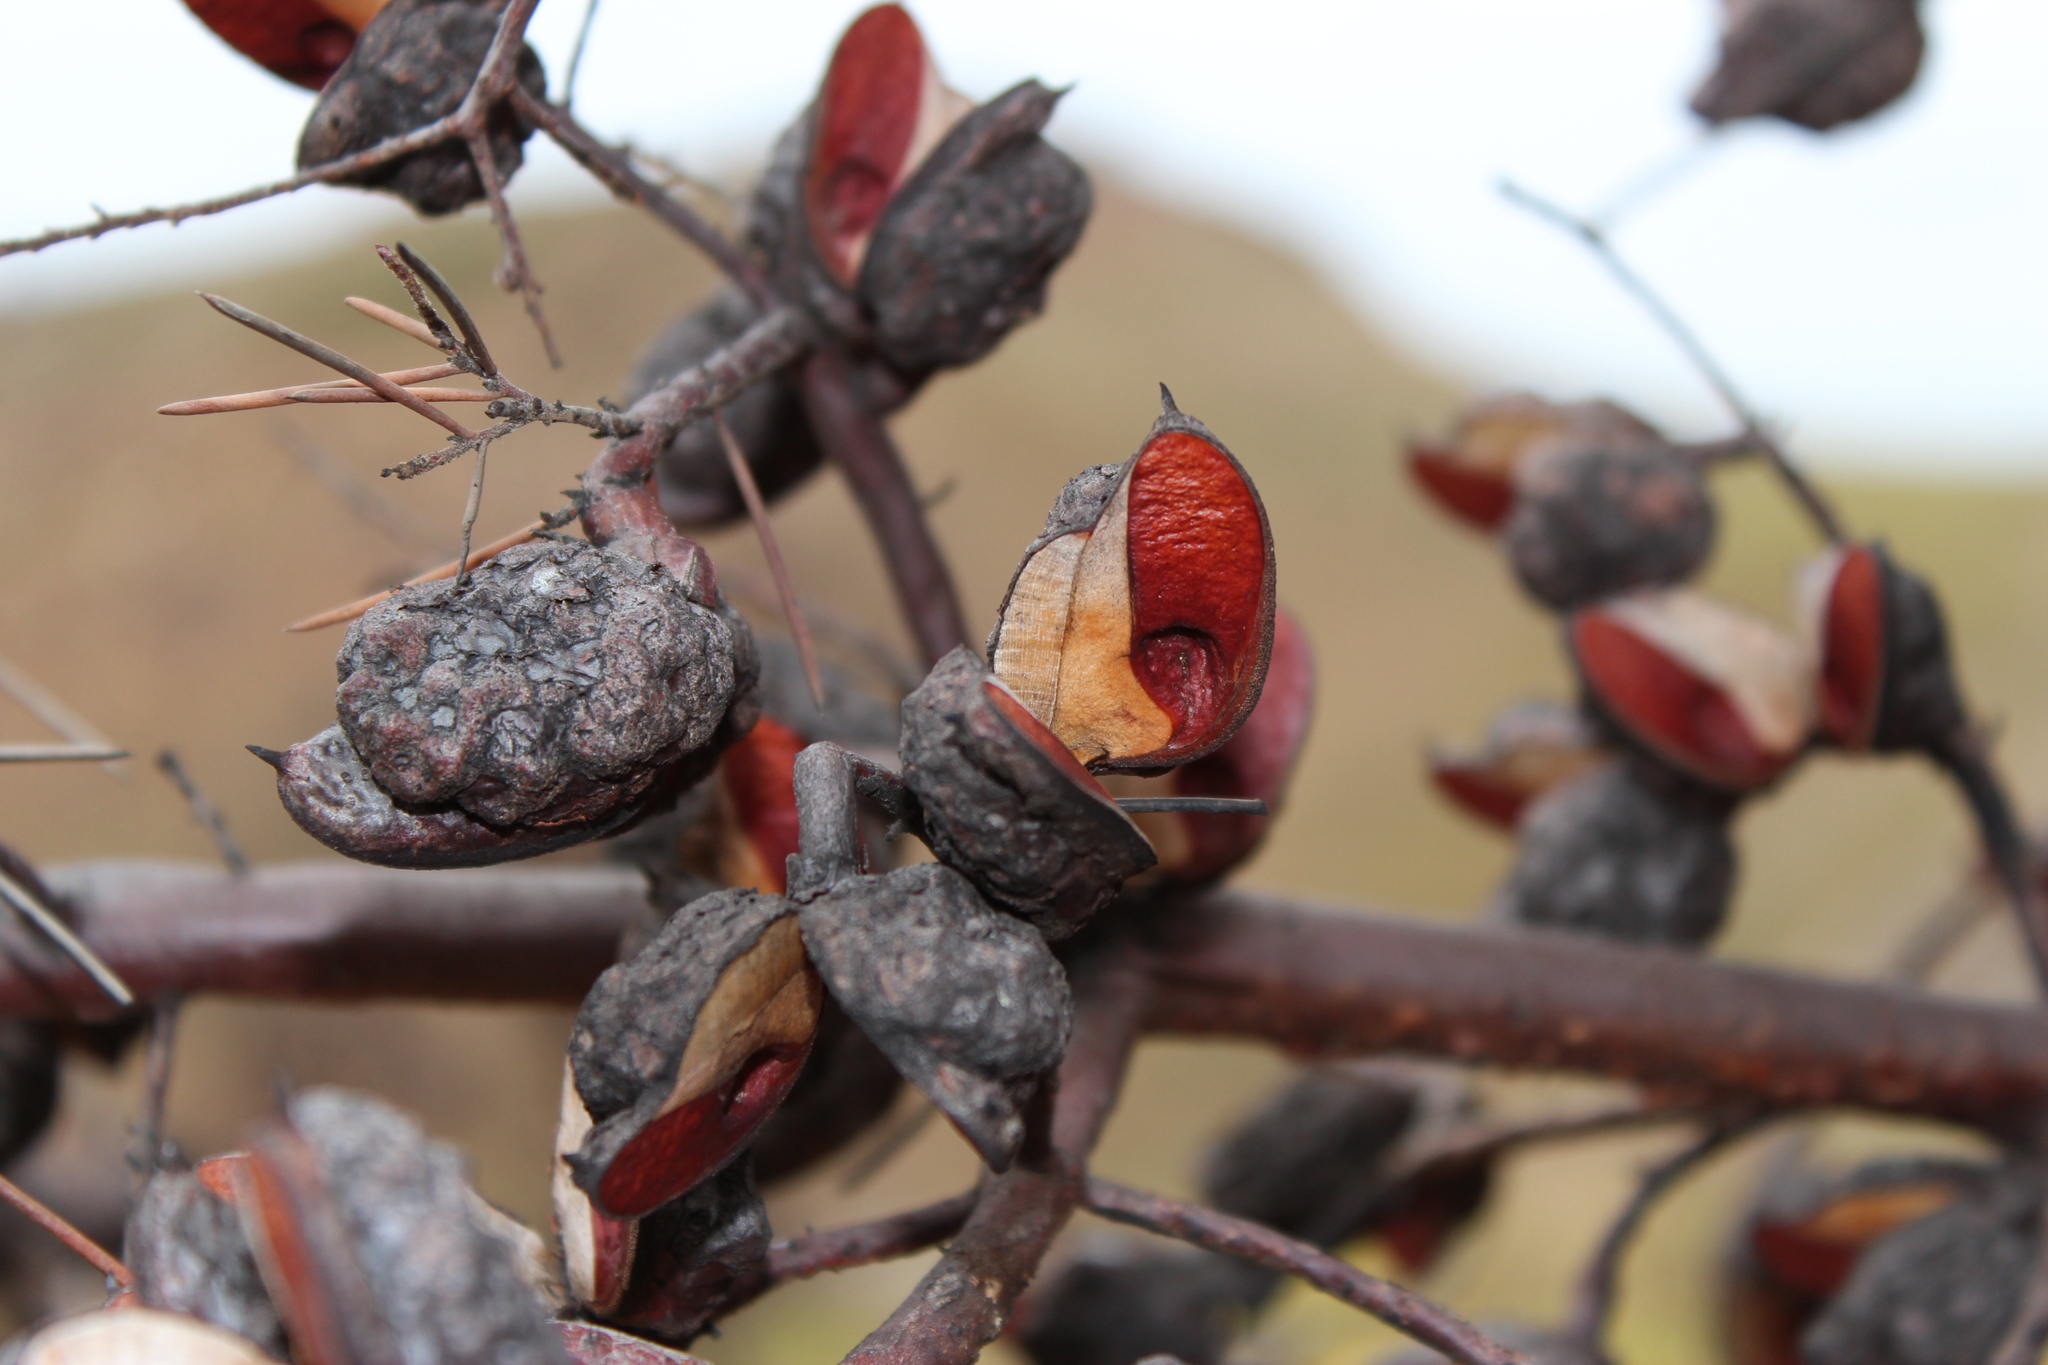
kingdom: Plantae
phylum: Tracheophyta
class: Magnoliopsida
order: Proteales
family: Proteaceae
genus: Hakea
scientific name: Hakea sericea
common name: Needle bush
